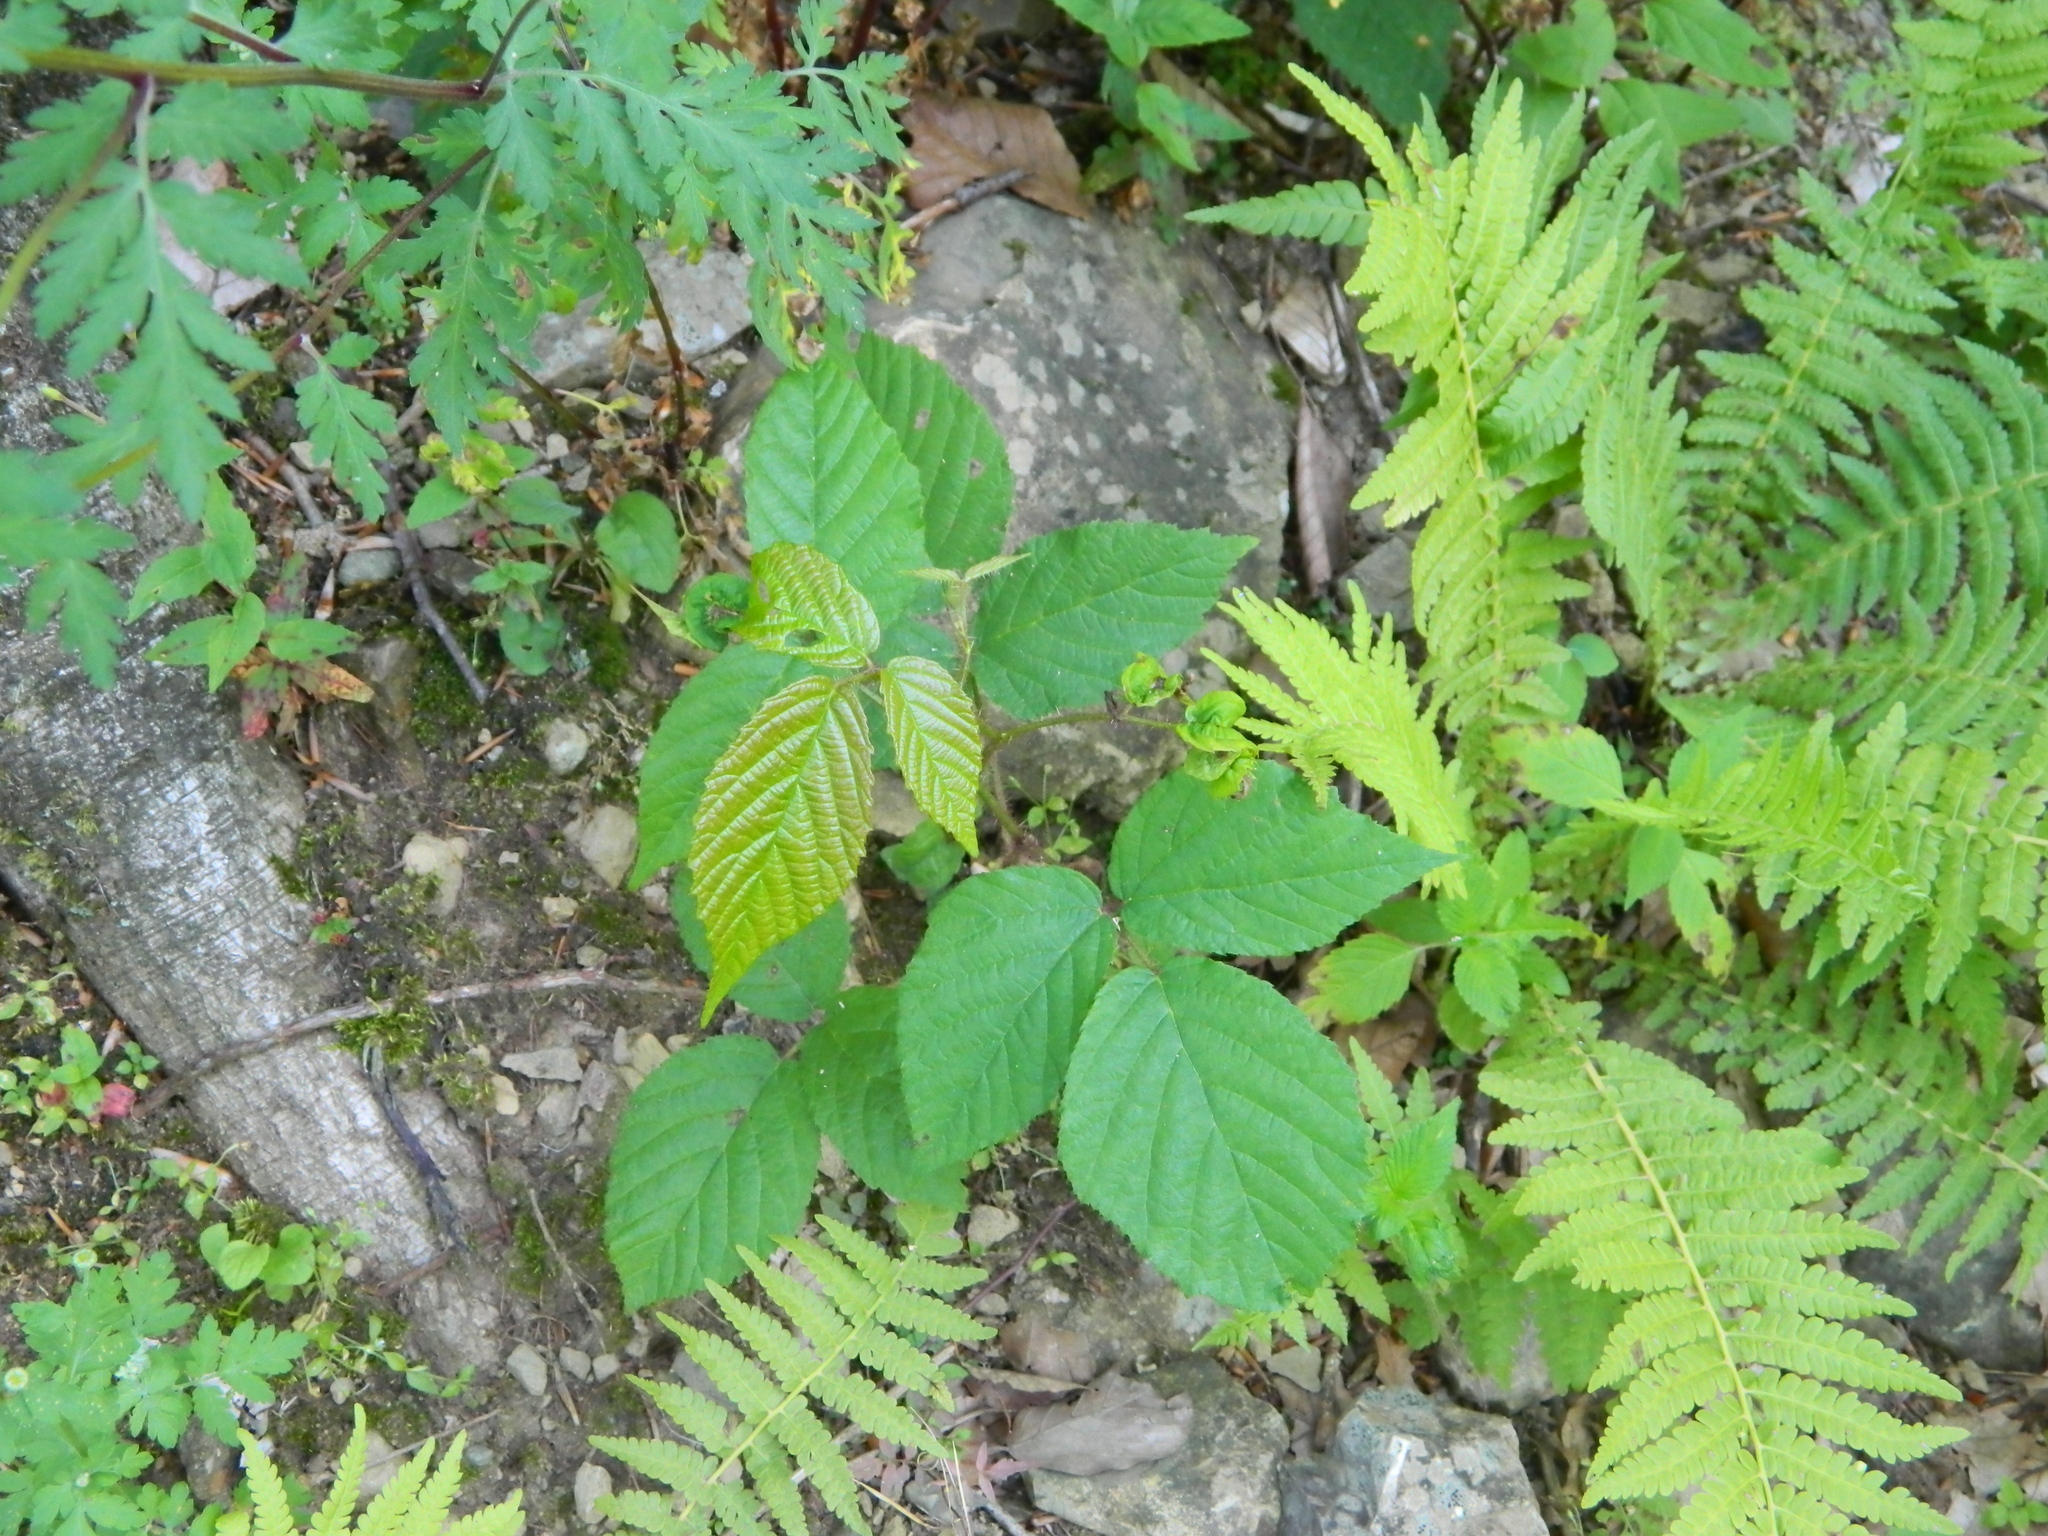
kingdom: Plantae
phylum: Tracheophyta
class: Magnoliopsida
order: Rosales
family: Rosaceae
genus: Rubus
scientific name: Rubus hirtus
